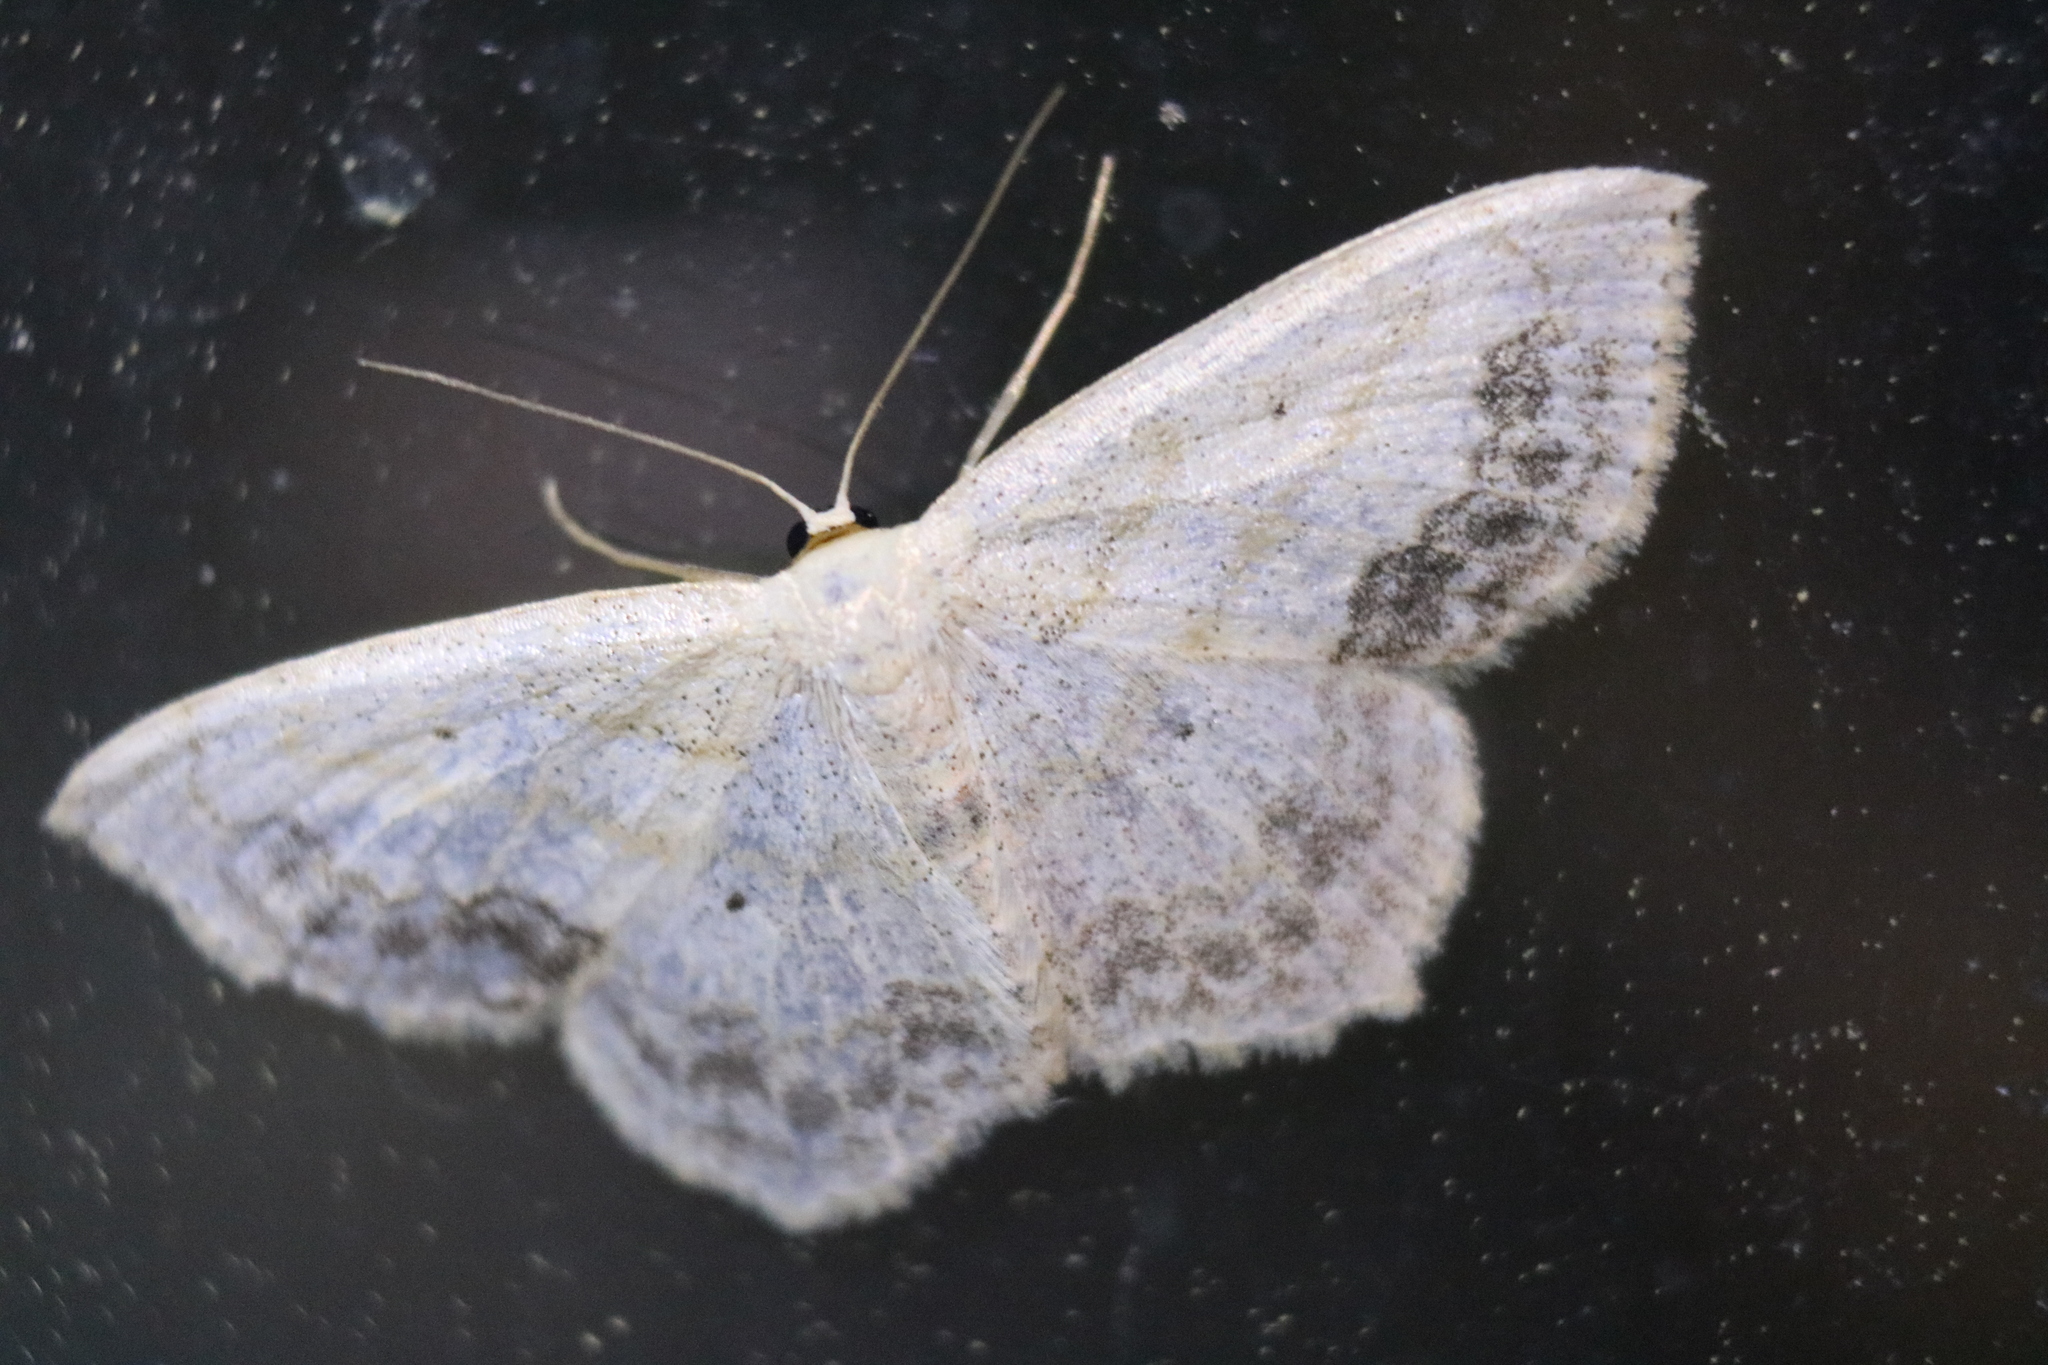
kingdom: Animalia
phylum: Arthropoda
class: Insecta
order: Lepidoptera
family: Geometridae
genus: Scopula
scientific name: Scopula limboundata
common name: Large lace border
